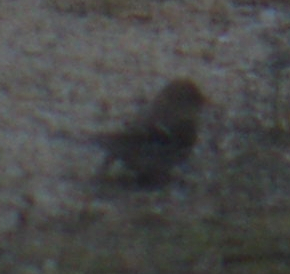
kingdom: Animalia
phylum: Chordata
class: Aves
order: Passeriformes
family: Fringillidae
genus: Acanthis
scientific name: Acanthis flammea
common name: Common redpoll
